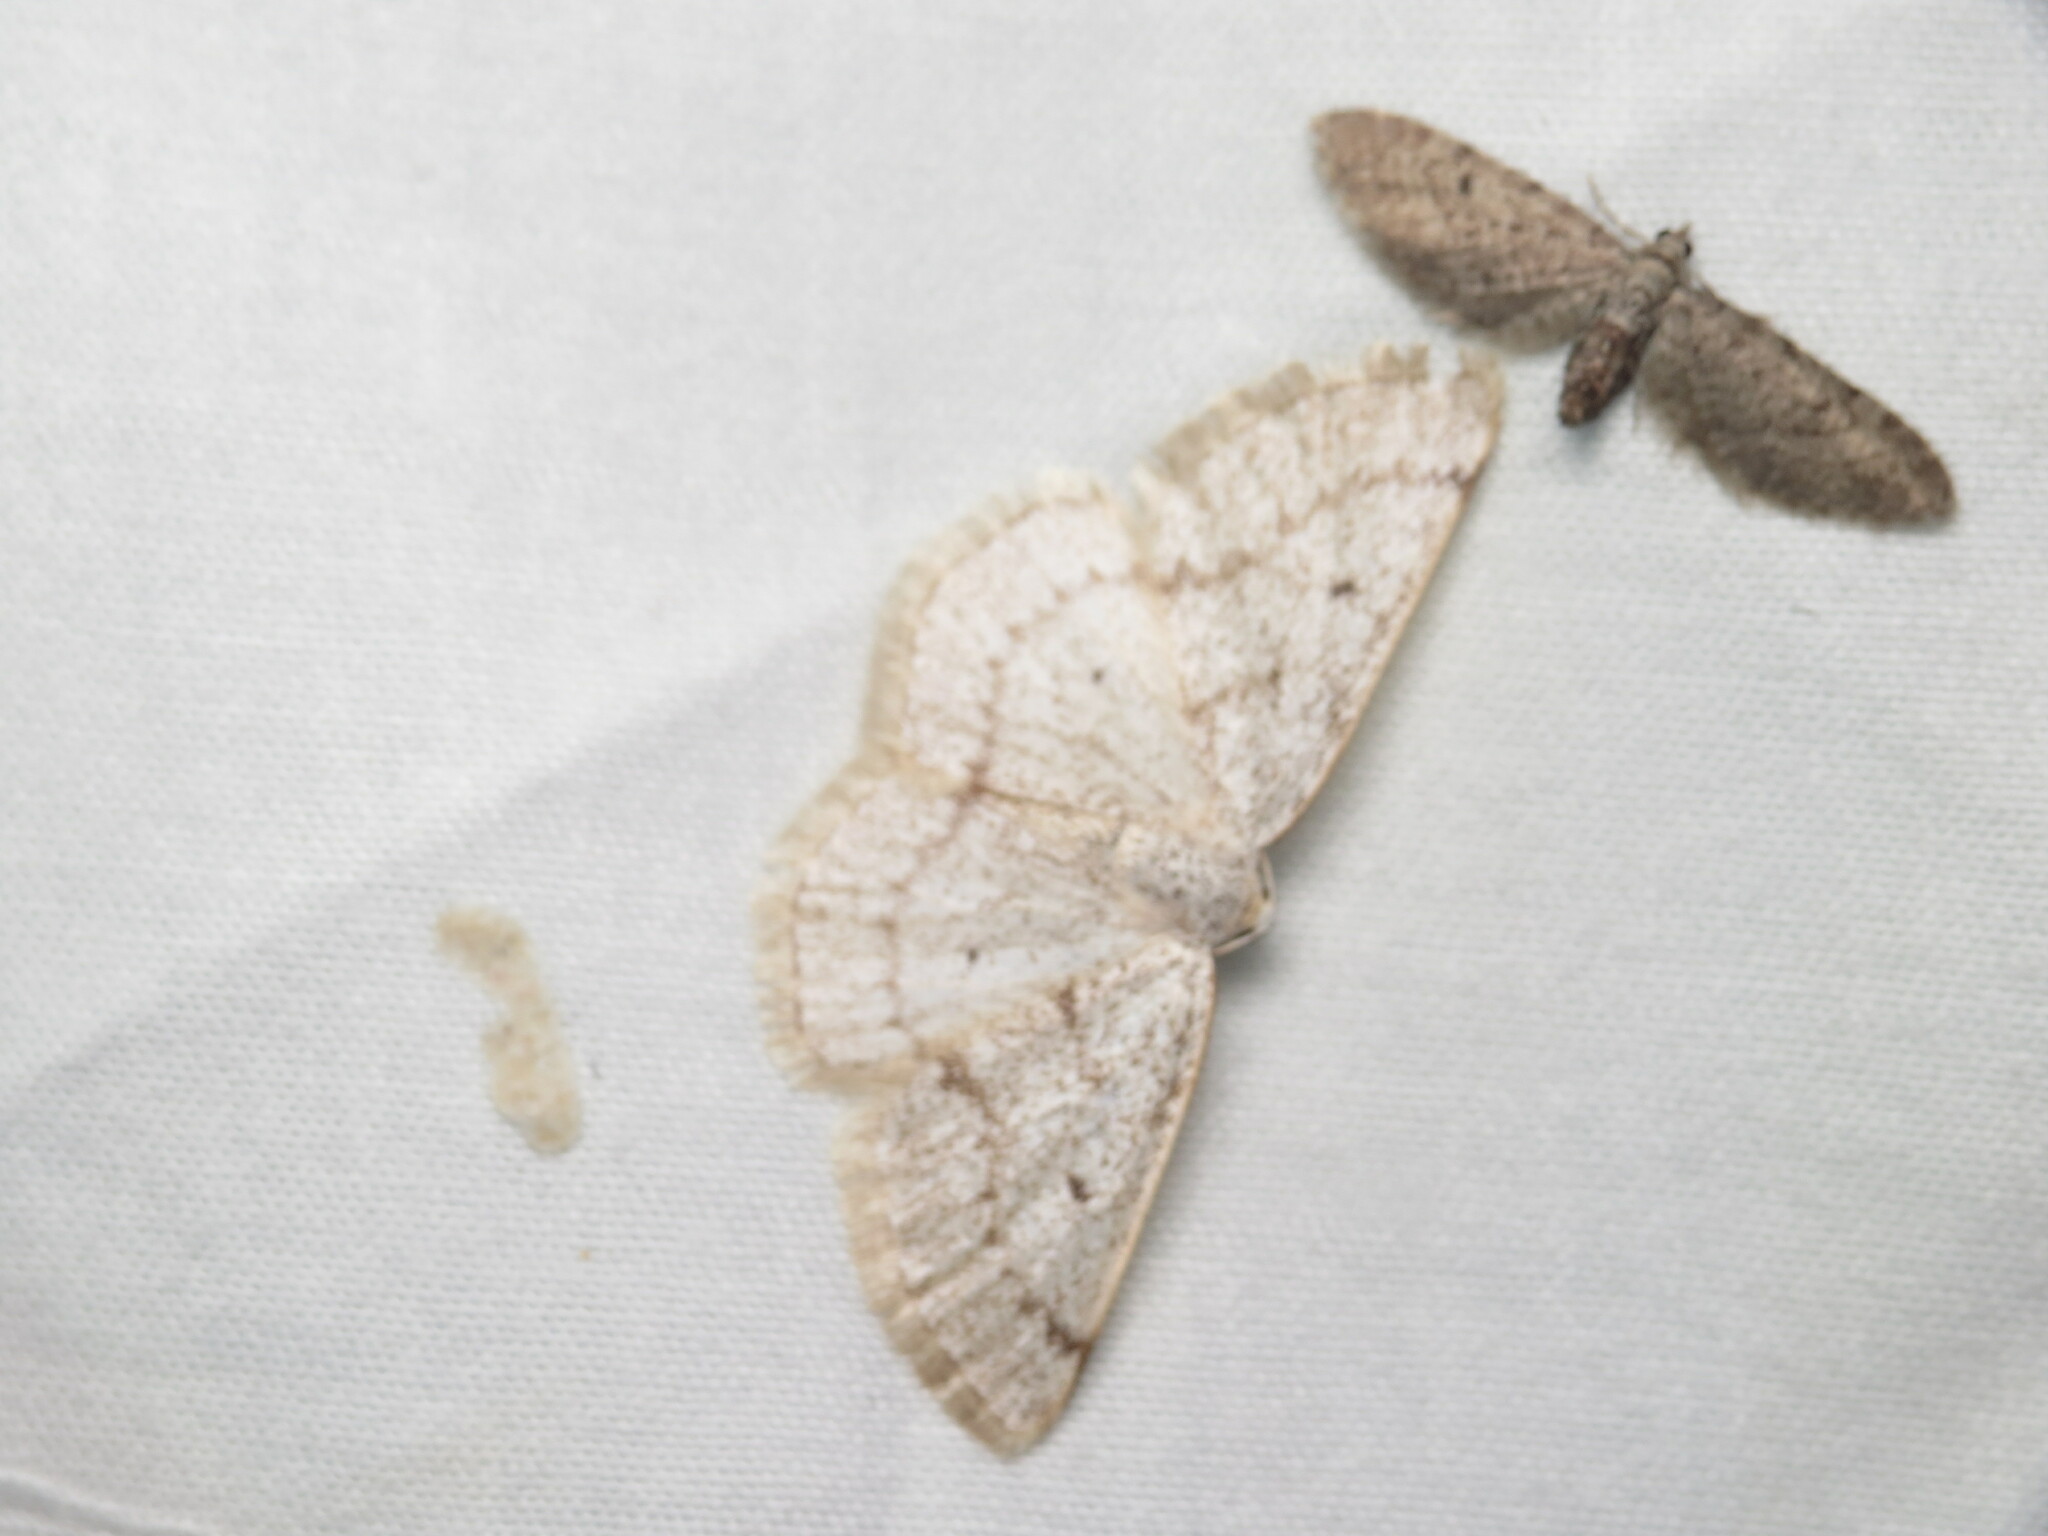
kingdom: Animalia
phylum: Arthropoda
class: Insecta
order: Lepidoptera
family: Geometridae
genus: Lomographa
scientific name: Lomographa glomeraria
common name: Gray spring moth
